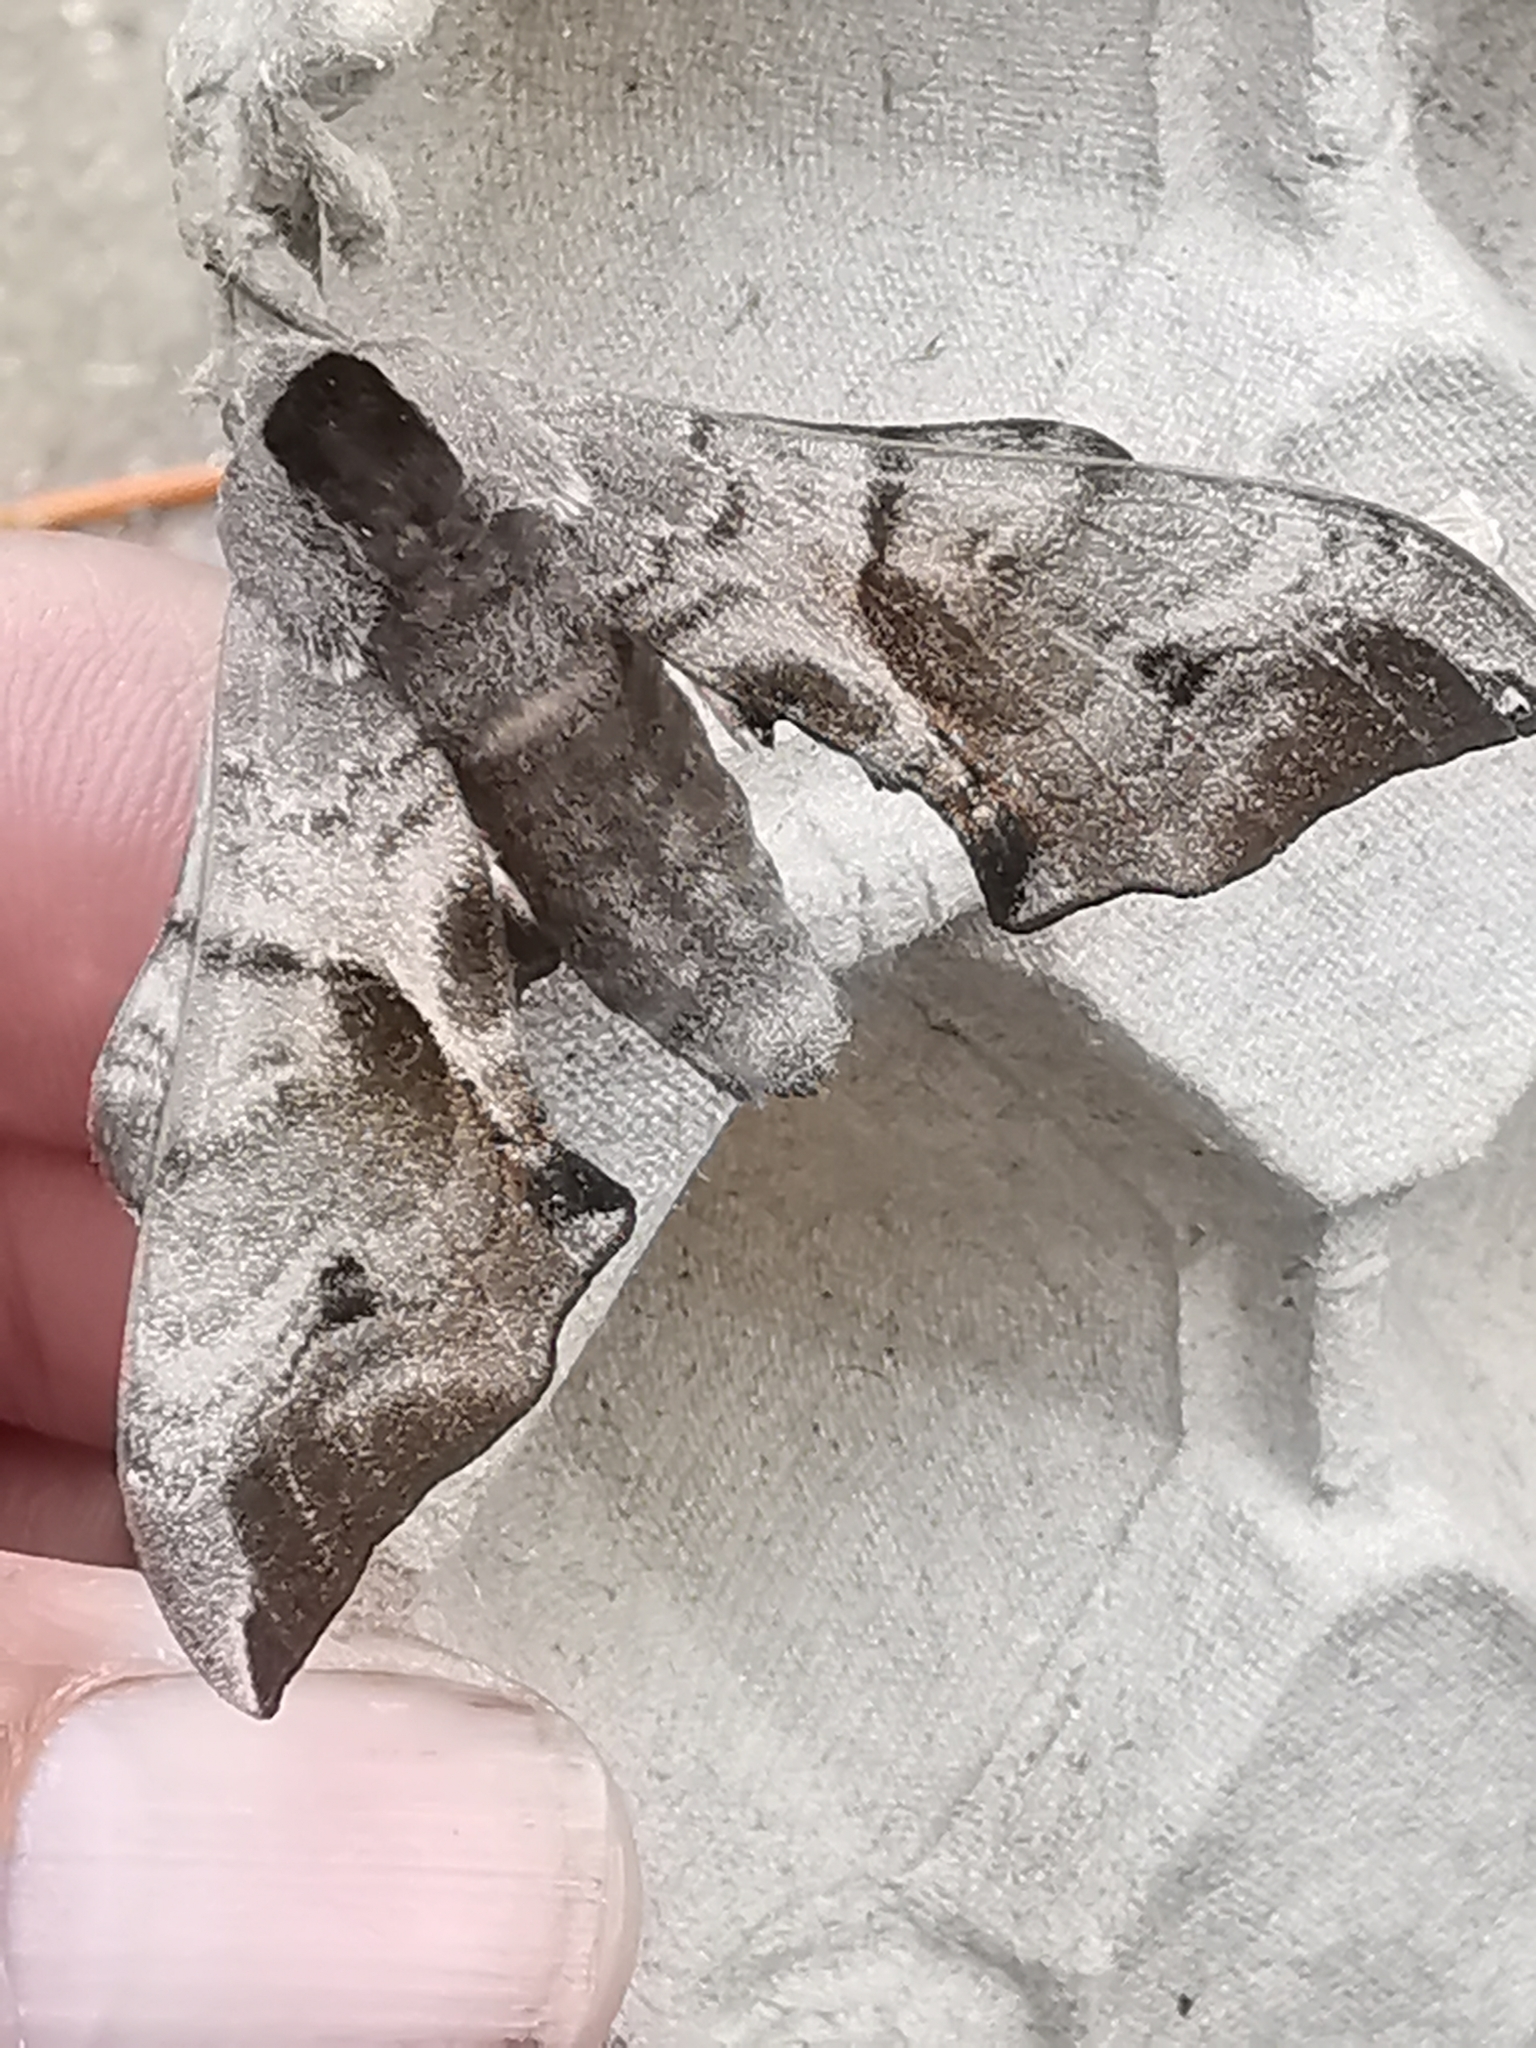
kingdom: Animalia
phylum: Arthropoda
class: Insecta
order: Lepidoptera
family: Sphingidae
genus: Smerinthus
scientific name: Smerinthus ocellata
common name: Eyed hawk-moth
